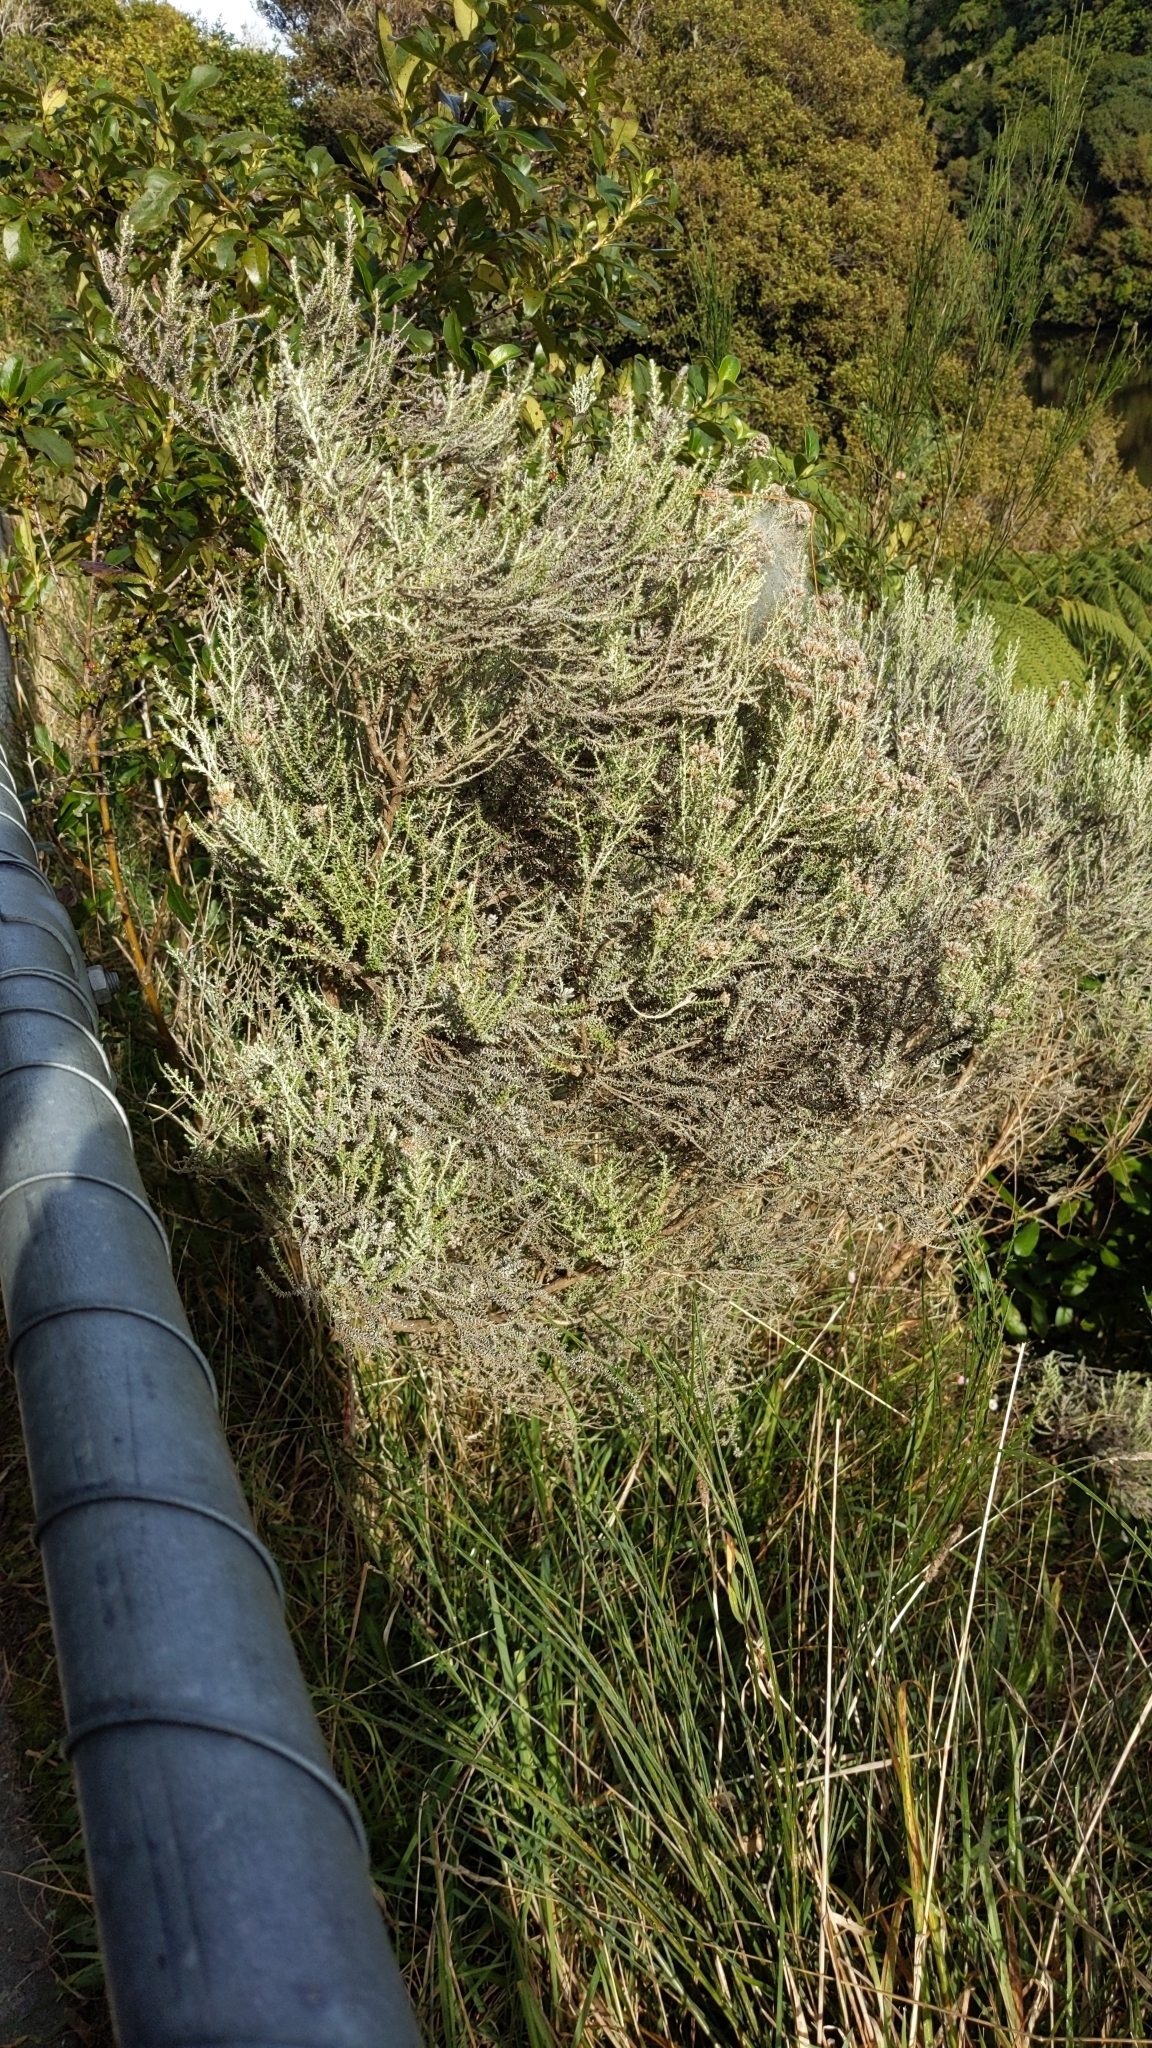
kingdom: Plantae
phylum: Tracheophyta
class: Magnoliopsida
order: Asterales
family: Asteraceae
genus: Ozothamnus
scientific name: Ozothamnus leptophyllus
